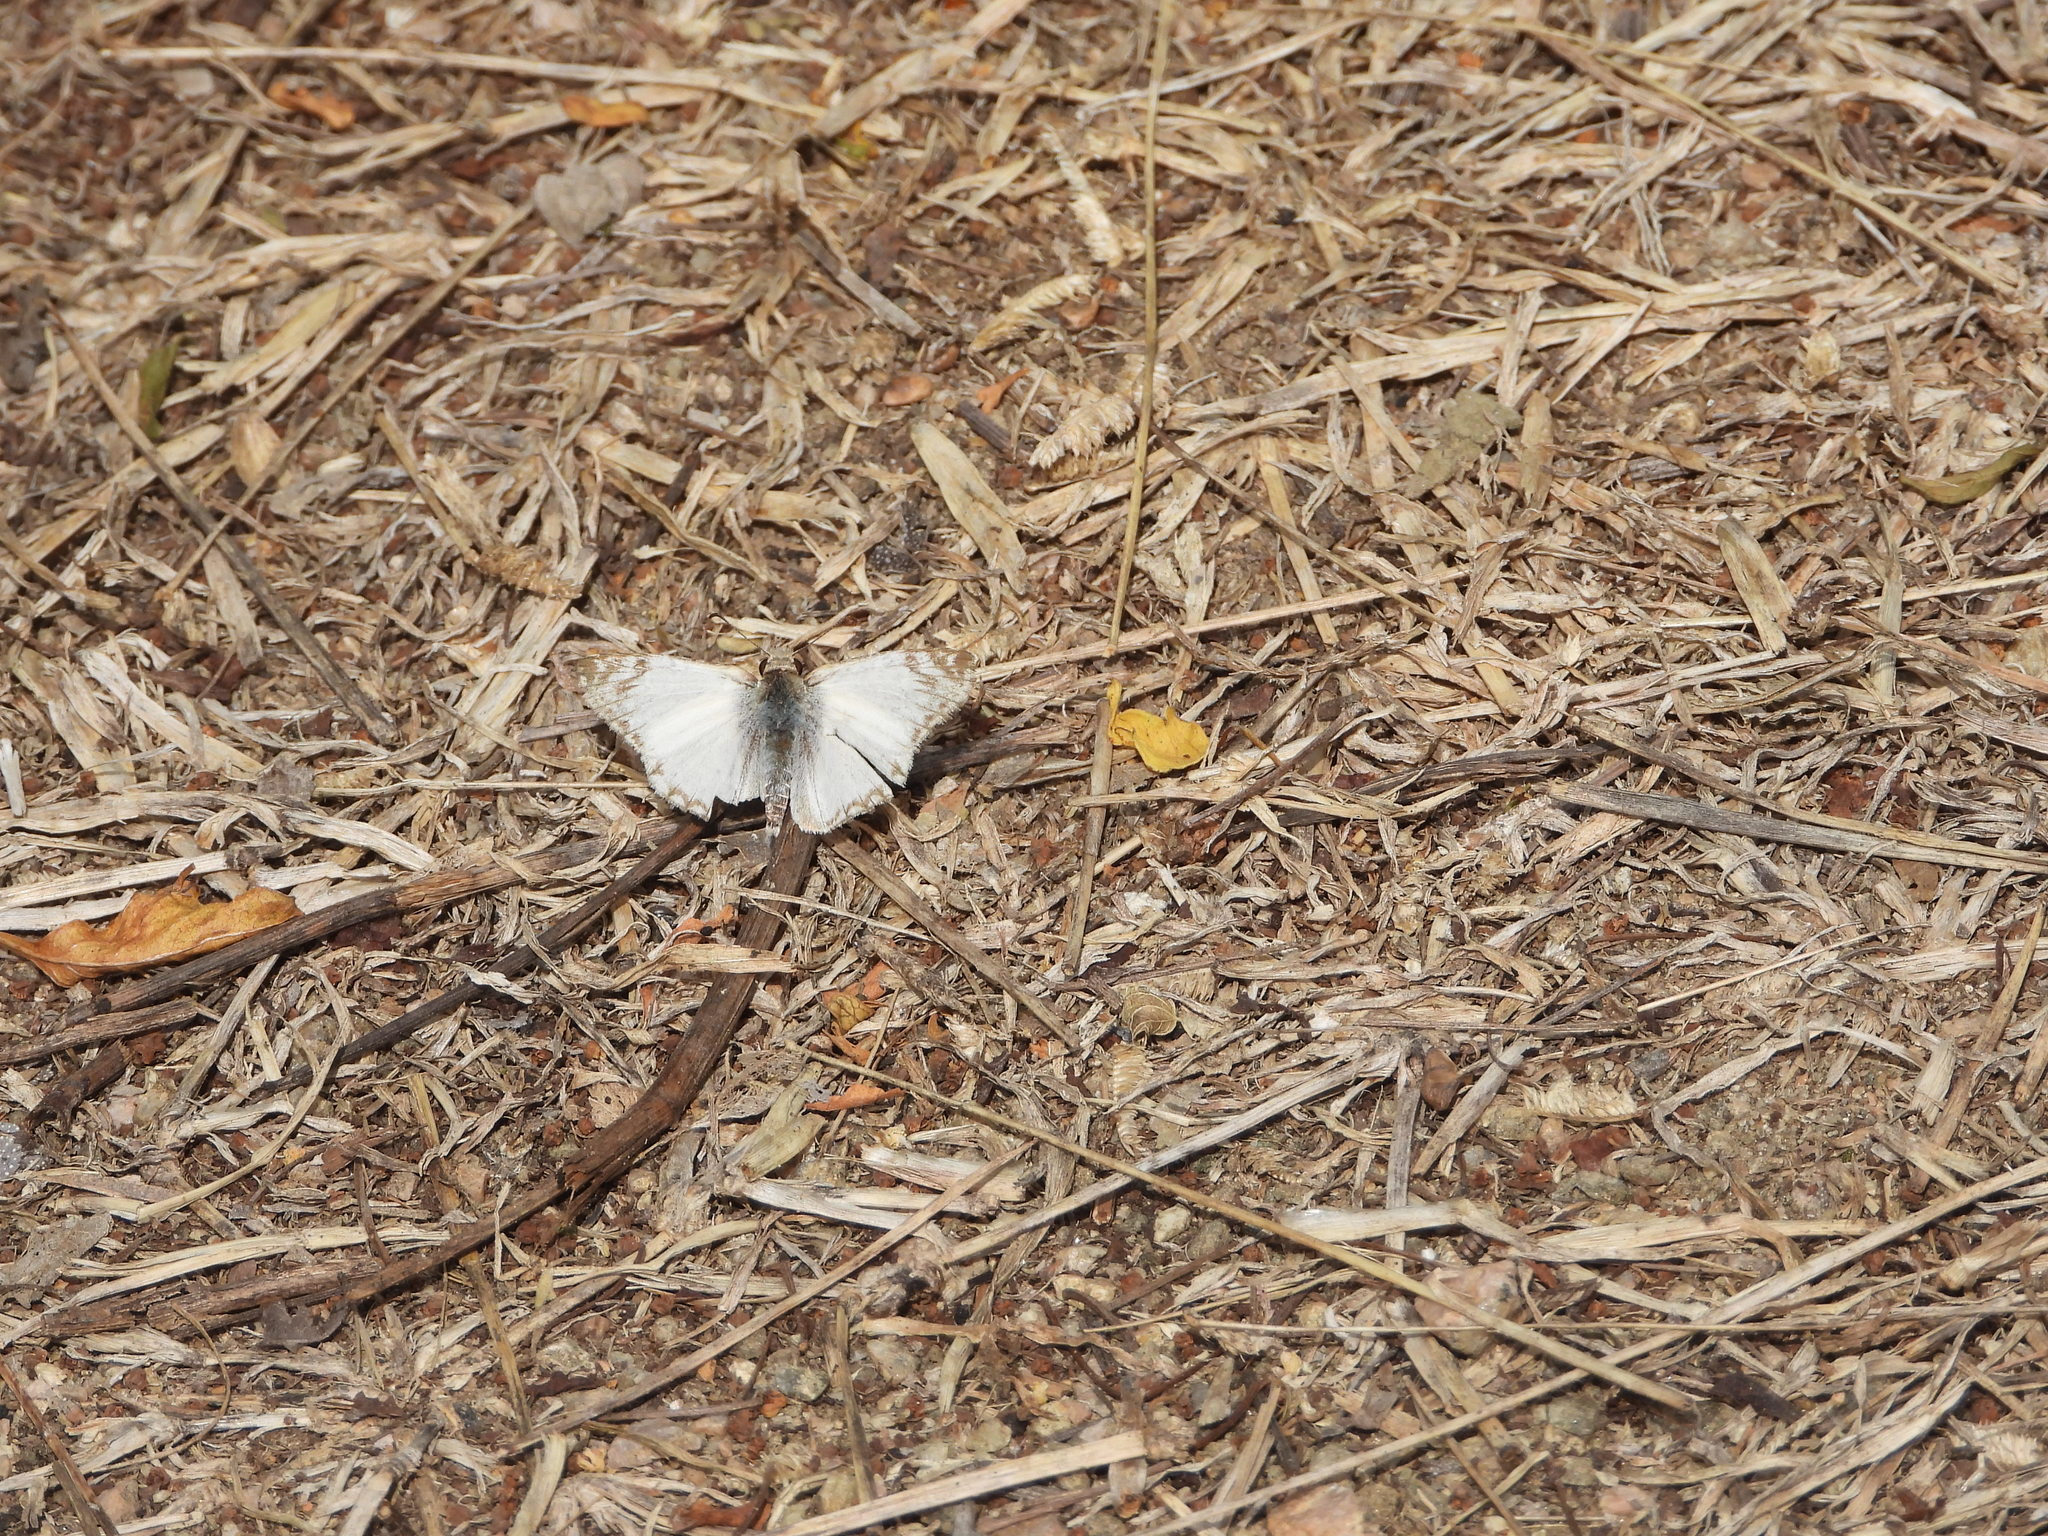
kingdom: Animalia
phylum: Arthropoda
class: Insecta
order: Lepidoptera
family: Hesperiidae
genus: Heliopetes
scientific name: Heliopetes laviana
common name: Laviana white-skipper
